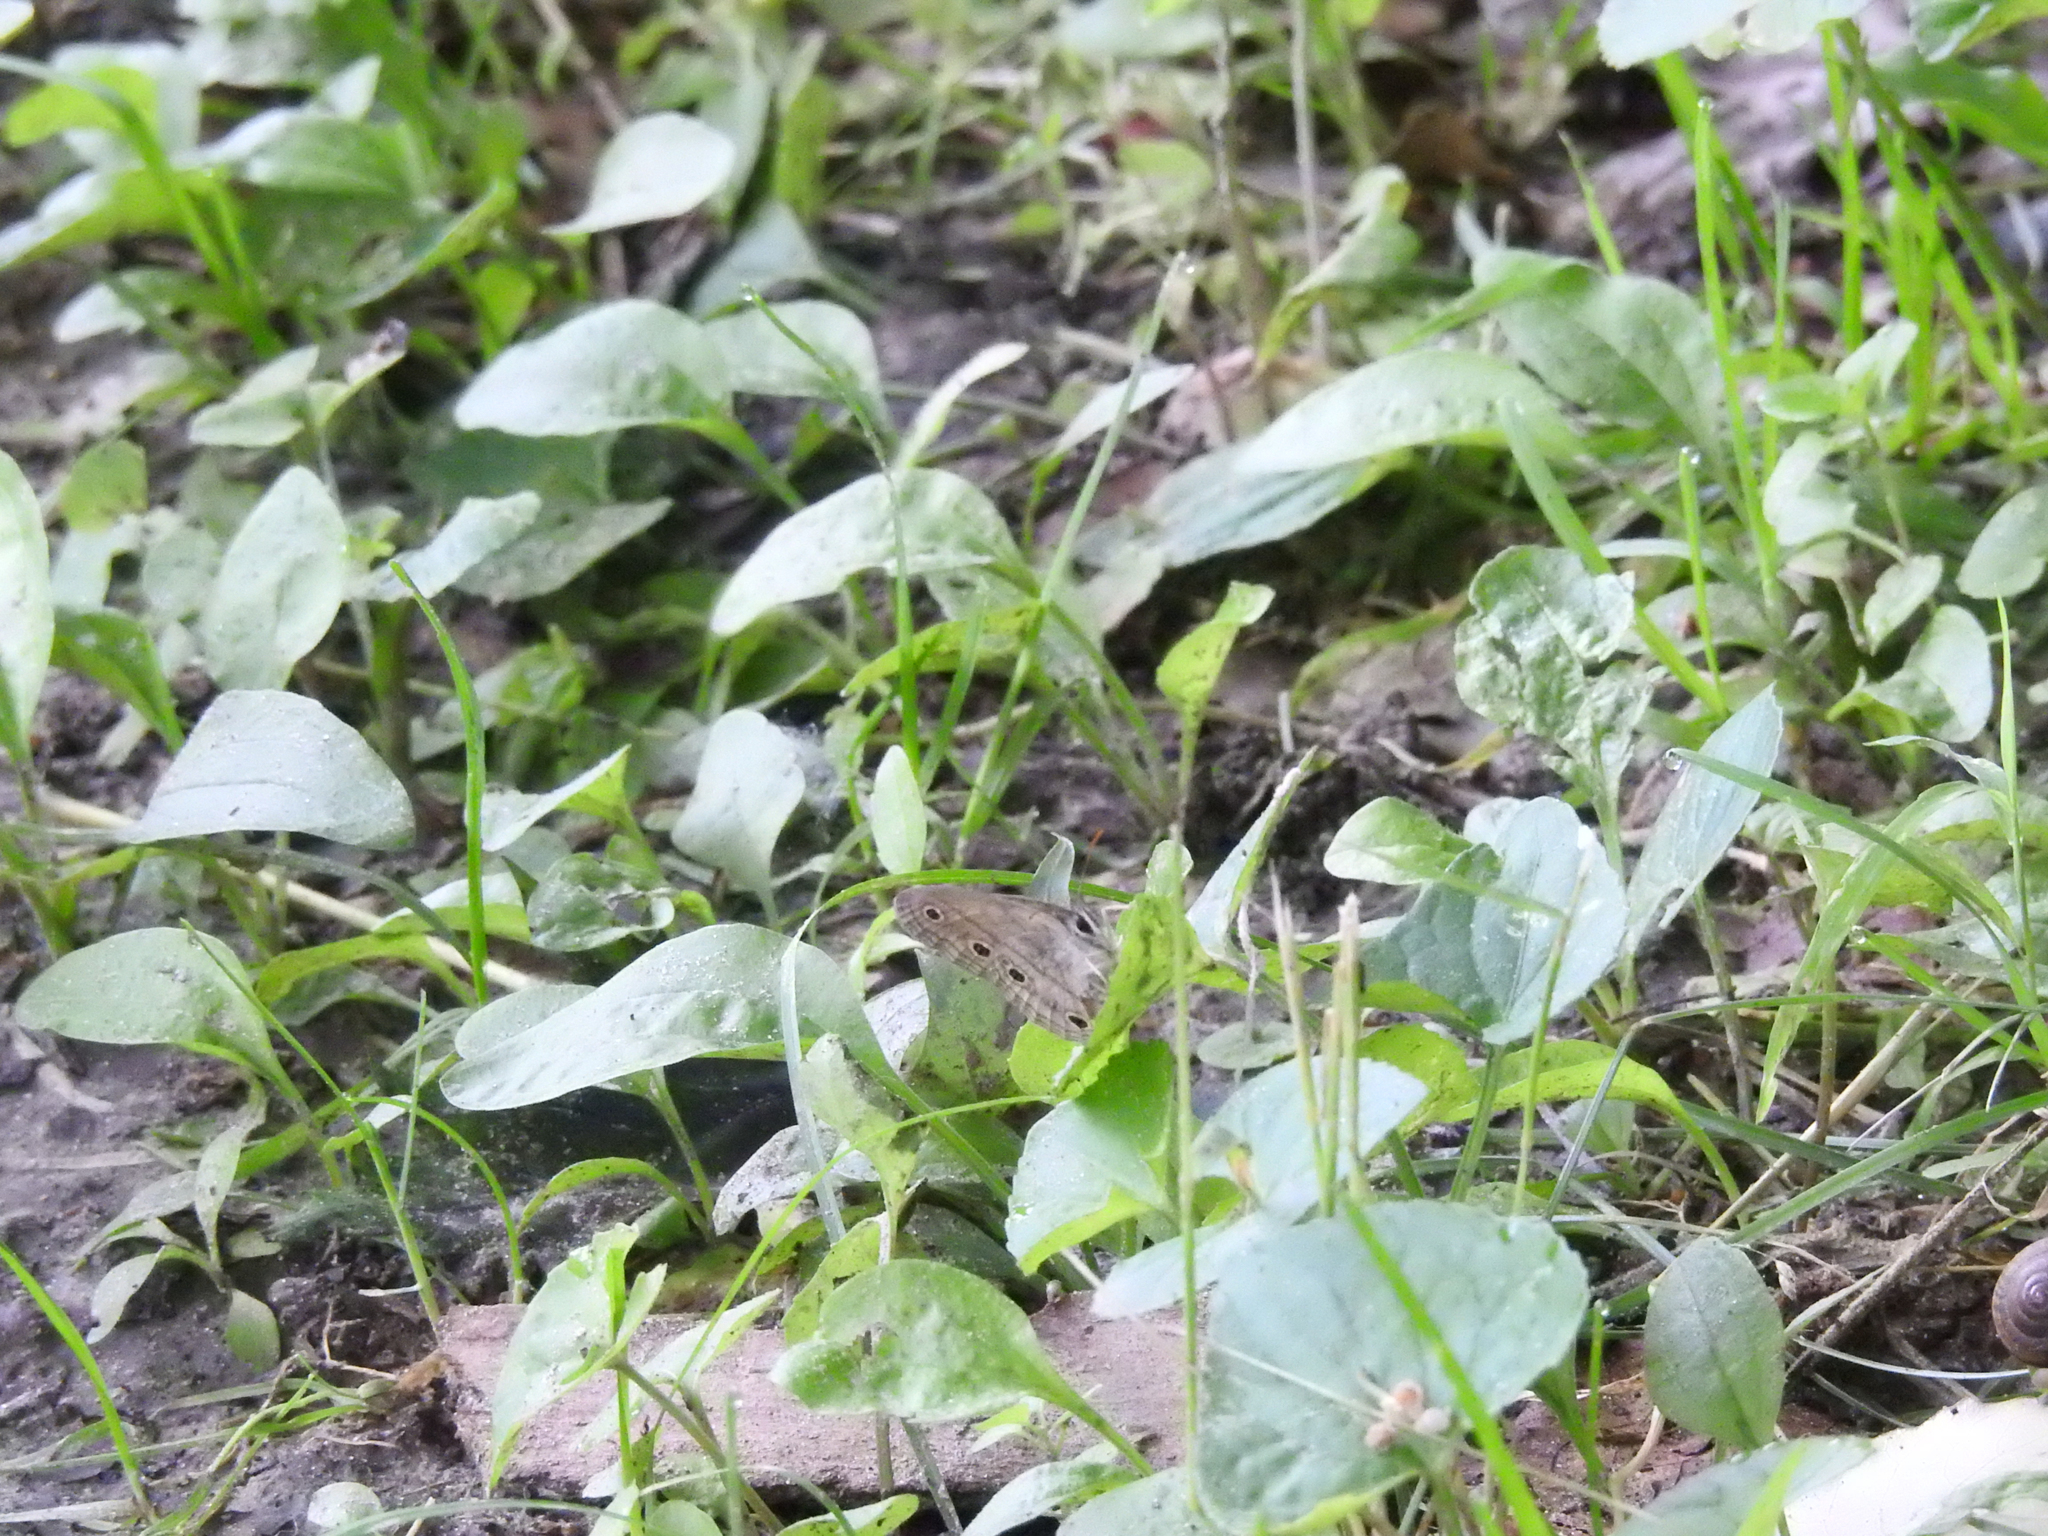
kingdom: Animalia
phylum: Arthropoda
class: Insecta
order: Lepidoptera
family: Nymphalidae
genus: Euptychia
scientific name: Euptychia cymela
